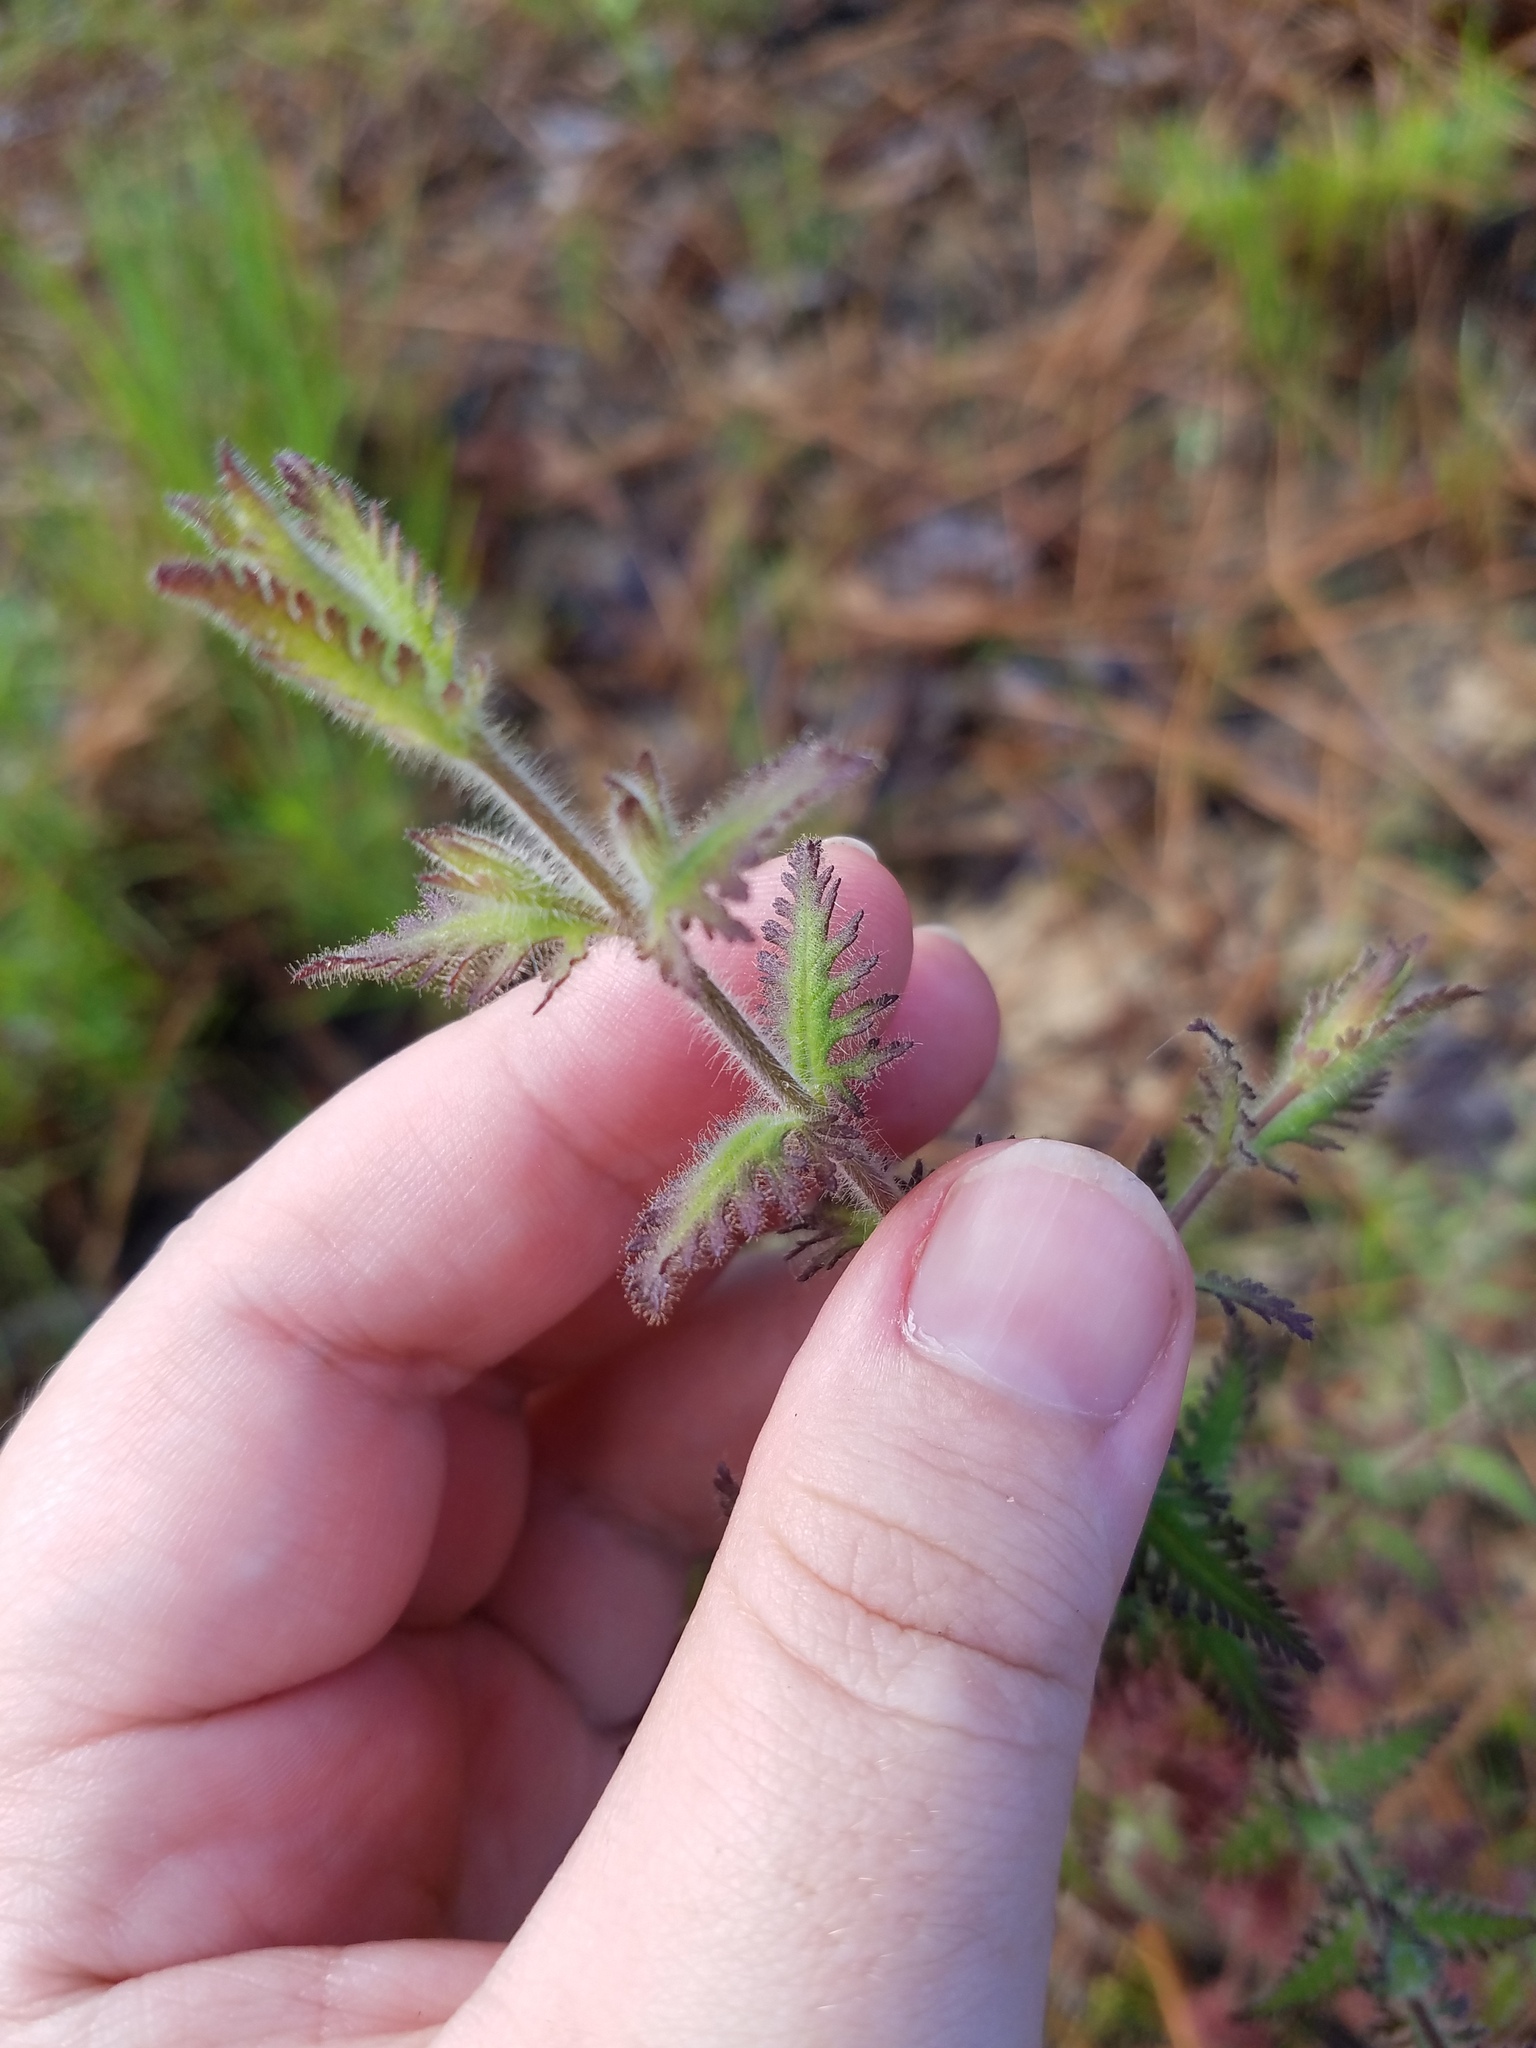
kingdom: Plantae
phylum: Tracheophyta
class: Magnoliopsida
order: Lamiales
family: Orobanchaceae
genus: Aureolaria
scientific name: Aureolaria pectinata
